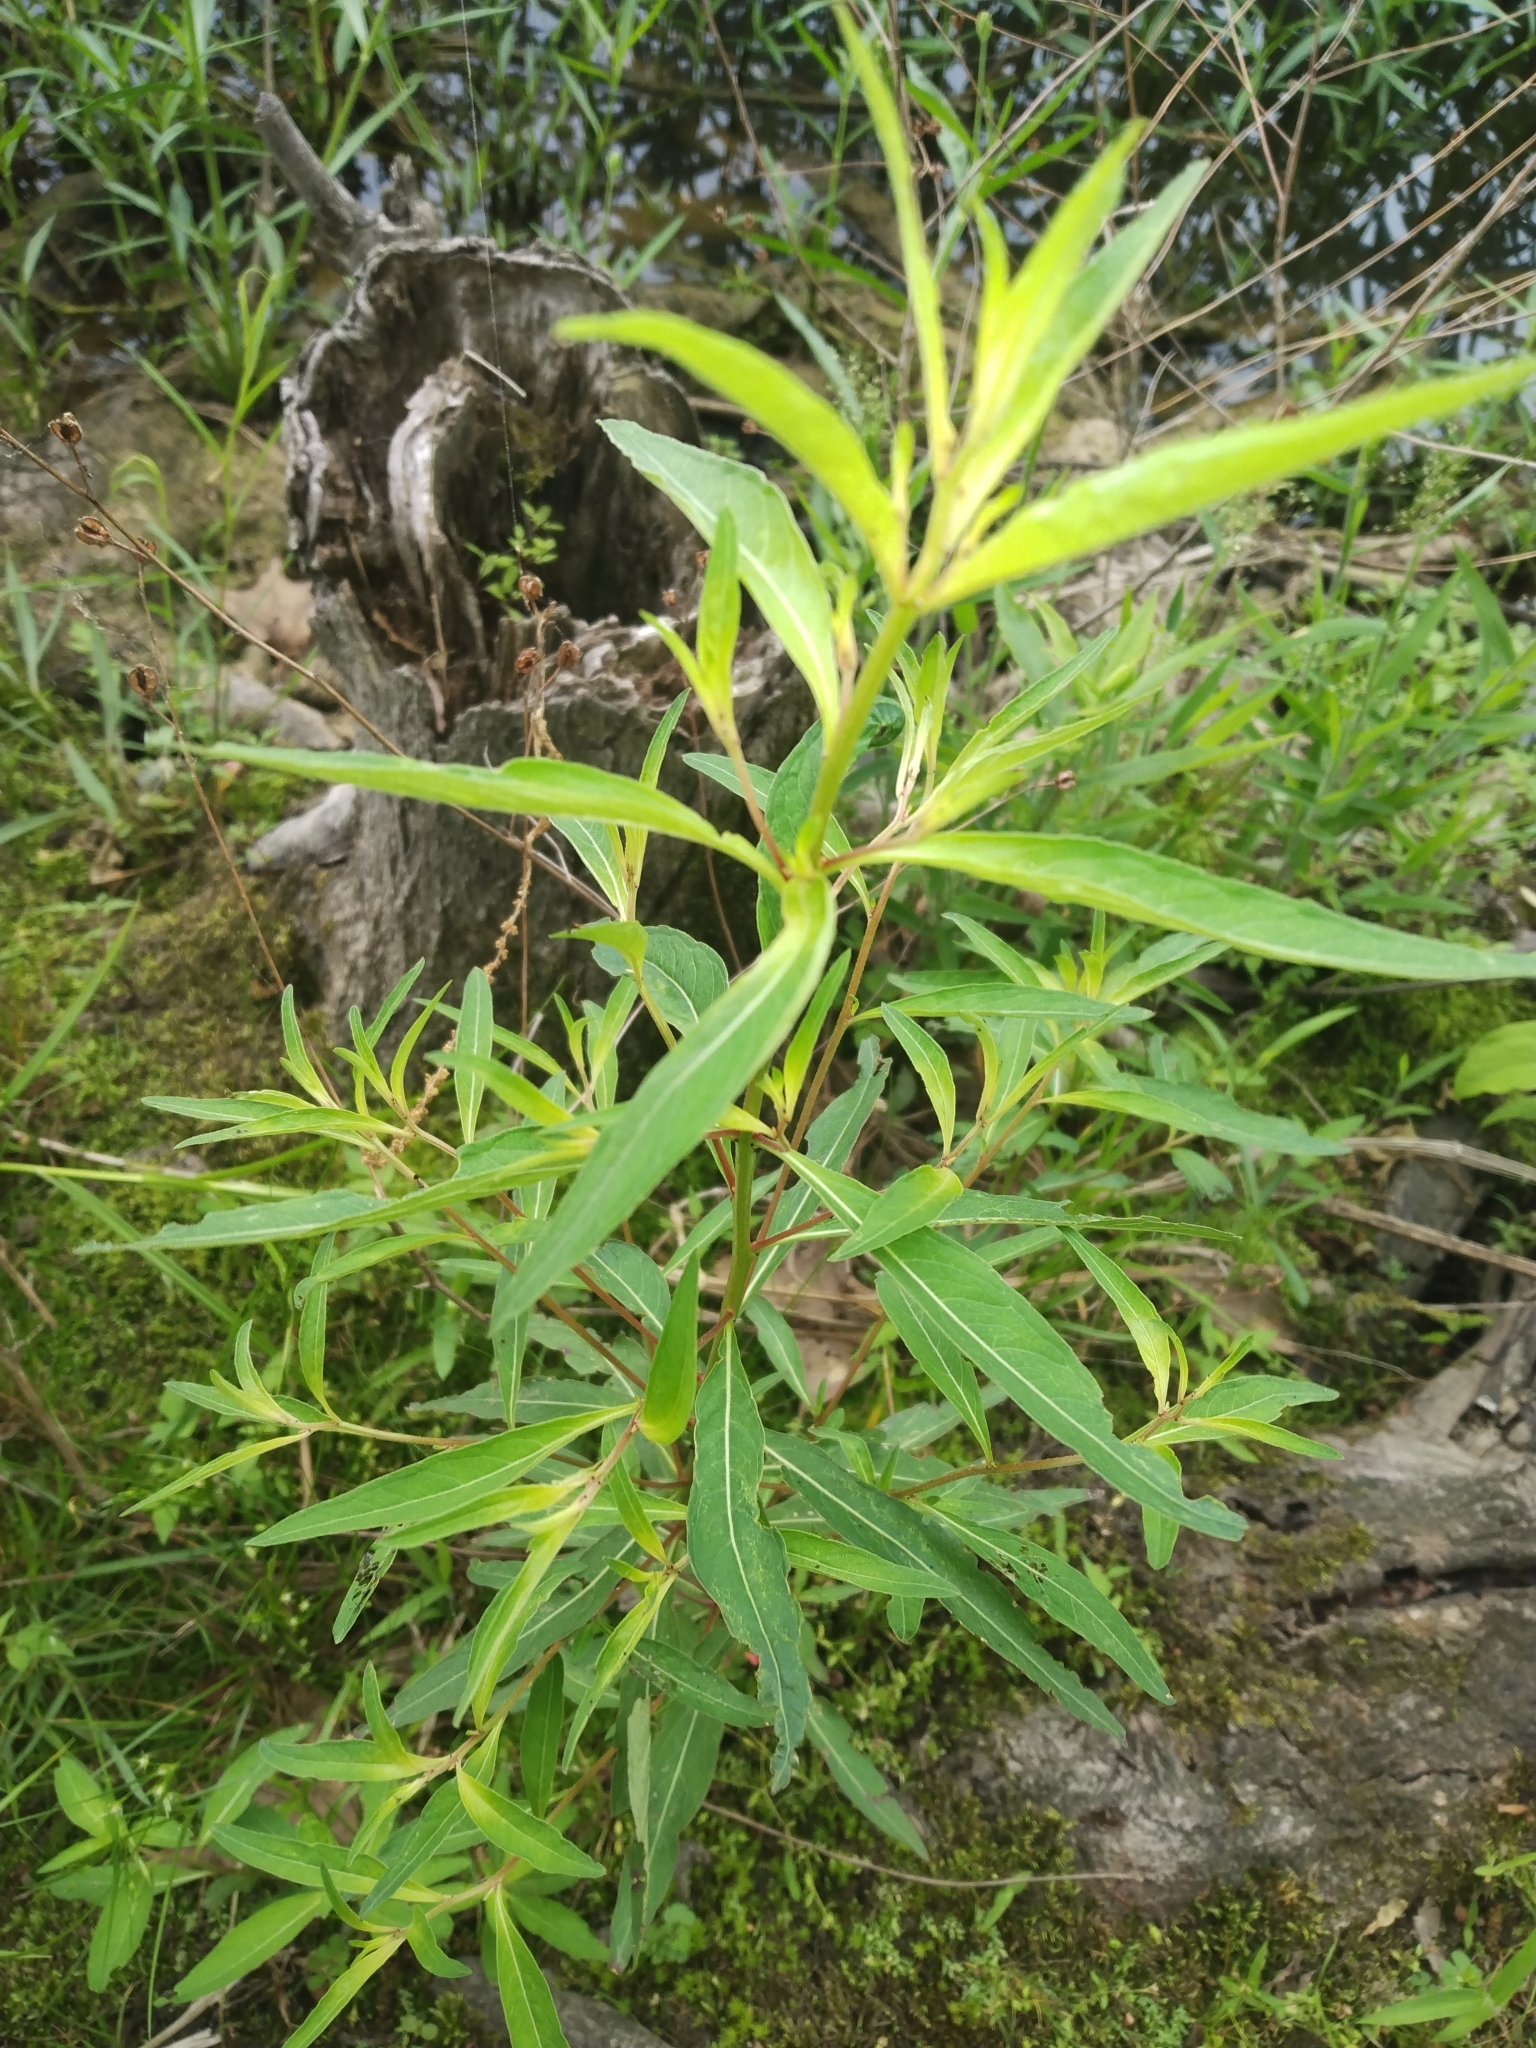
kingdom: Plantae
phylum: Tracheophyta
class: Magnoliopsida
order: Myrtales
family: Onagraceae
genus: Ludwigia
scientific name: Ludwigia alternifolia
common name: Rattlebox
